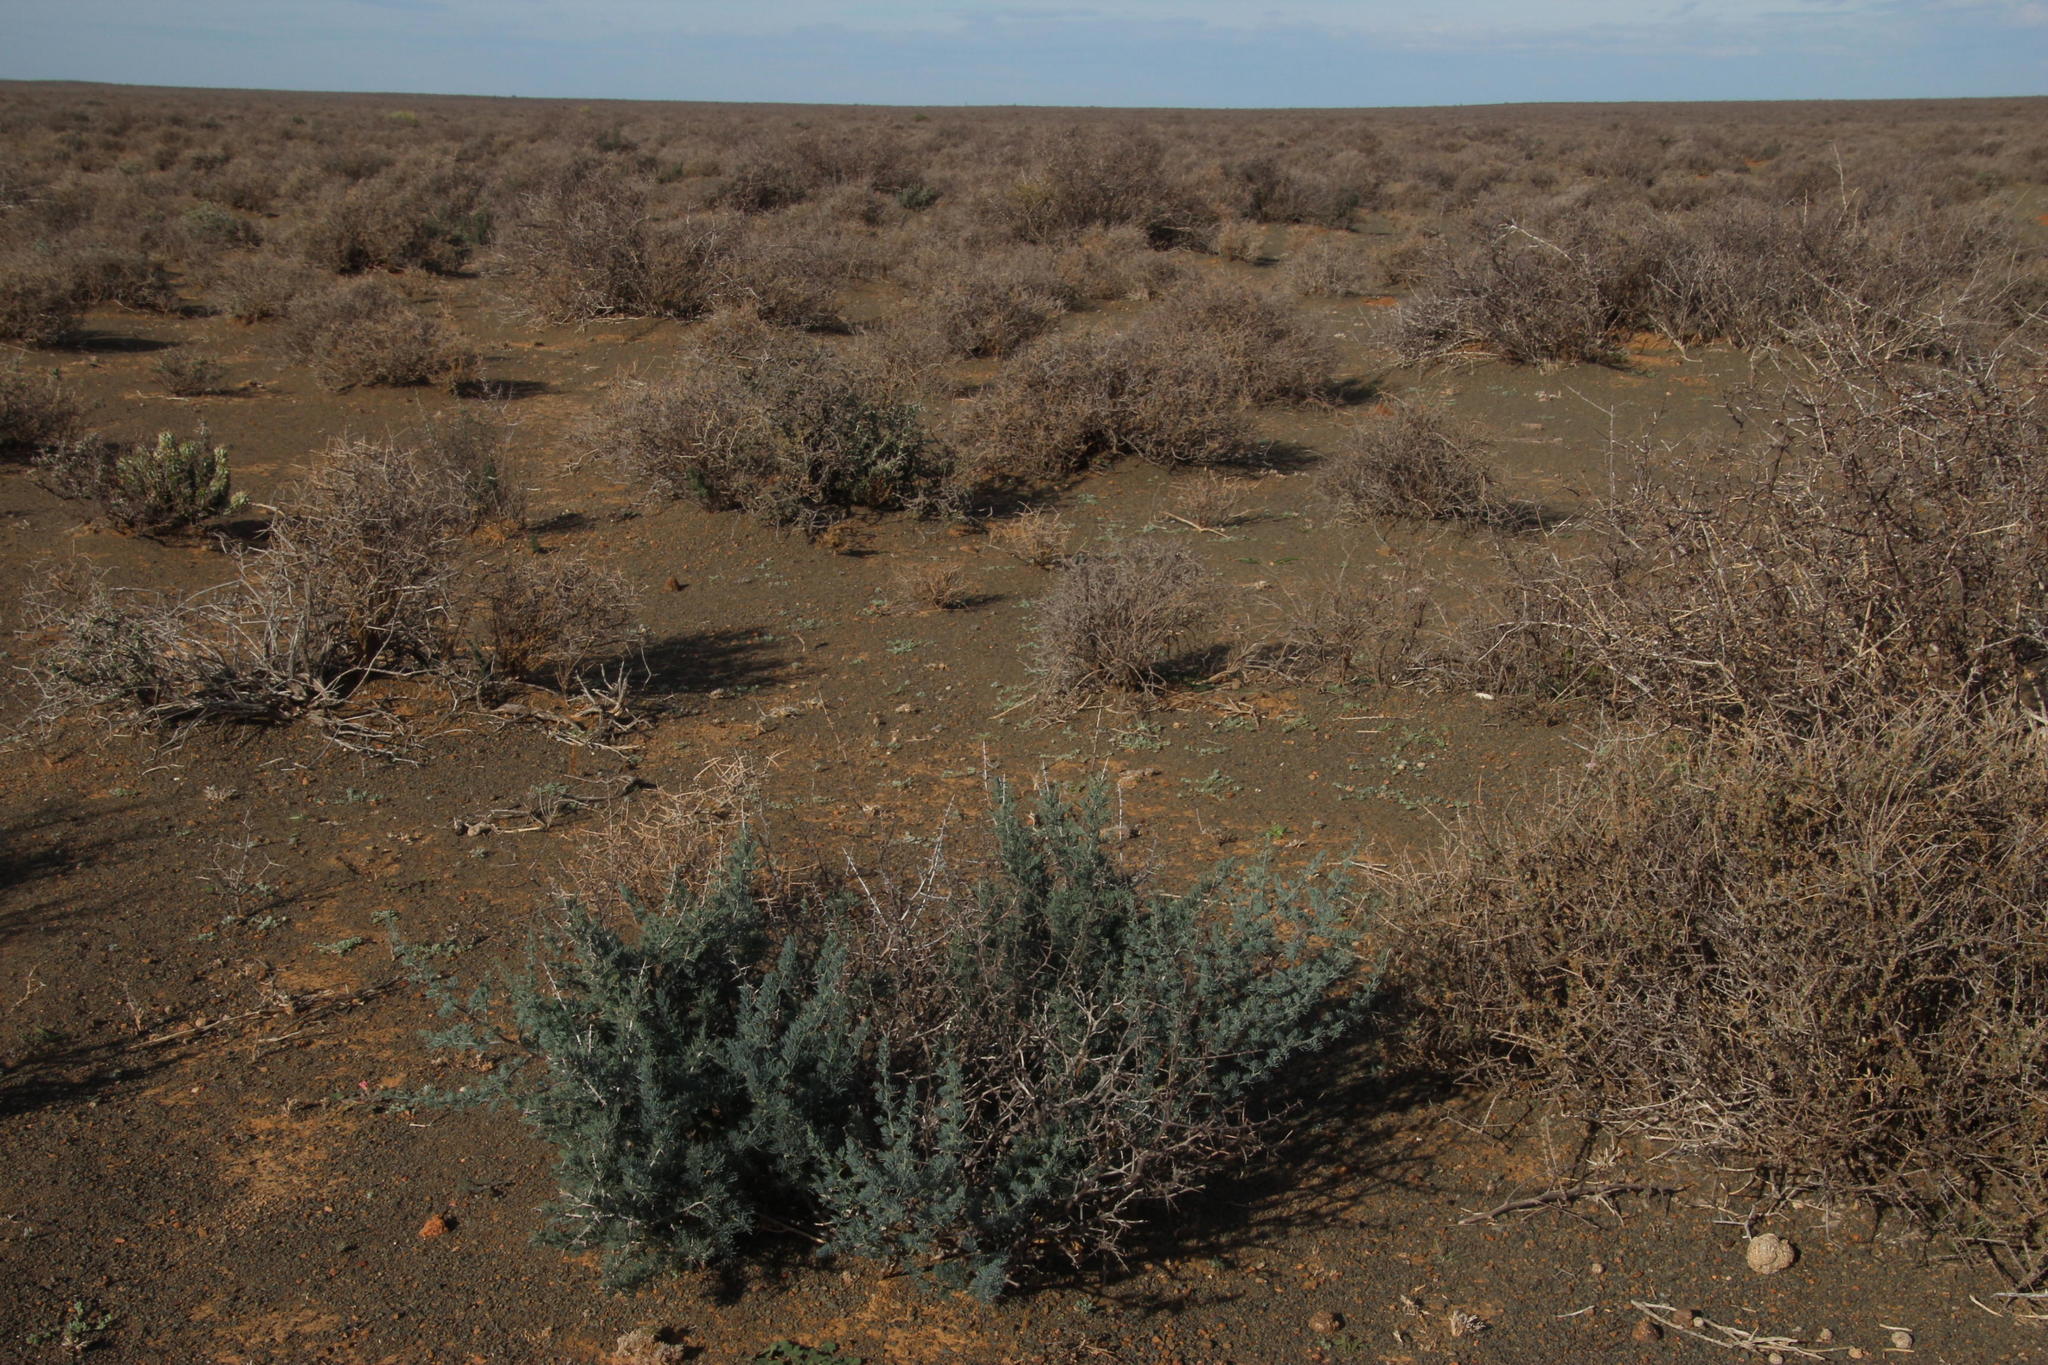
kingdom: Plantae
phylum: Tracheophyta
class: Liliopsida
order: Asparagales
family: Asparagaceae
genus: Asparagus
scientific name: Asparagus glaucus
